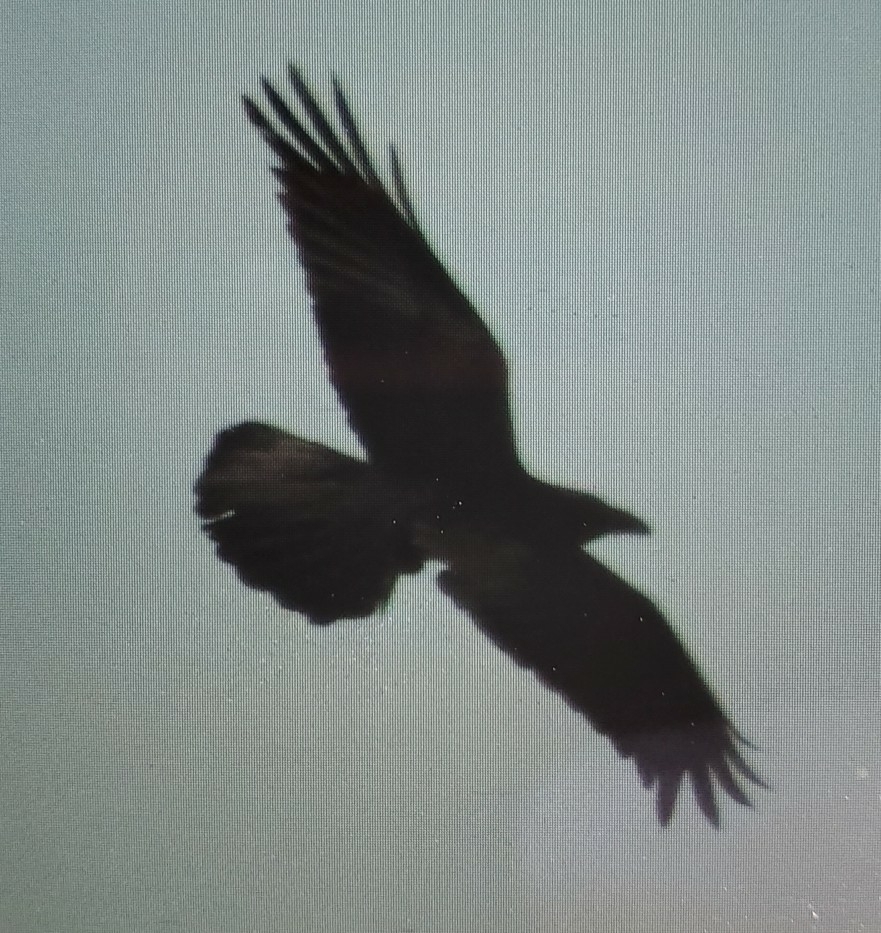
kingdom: Animalia
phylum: Chordata
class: Aves
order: Passeriformes
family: Corvidae
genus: Corvus
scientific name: Corvus corax
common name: Common raven
